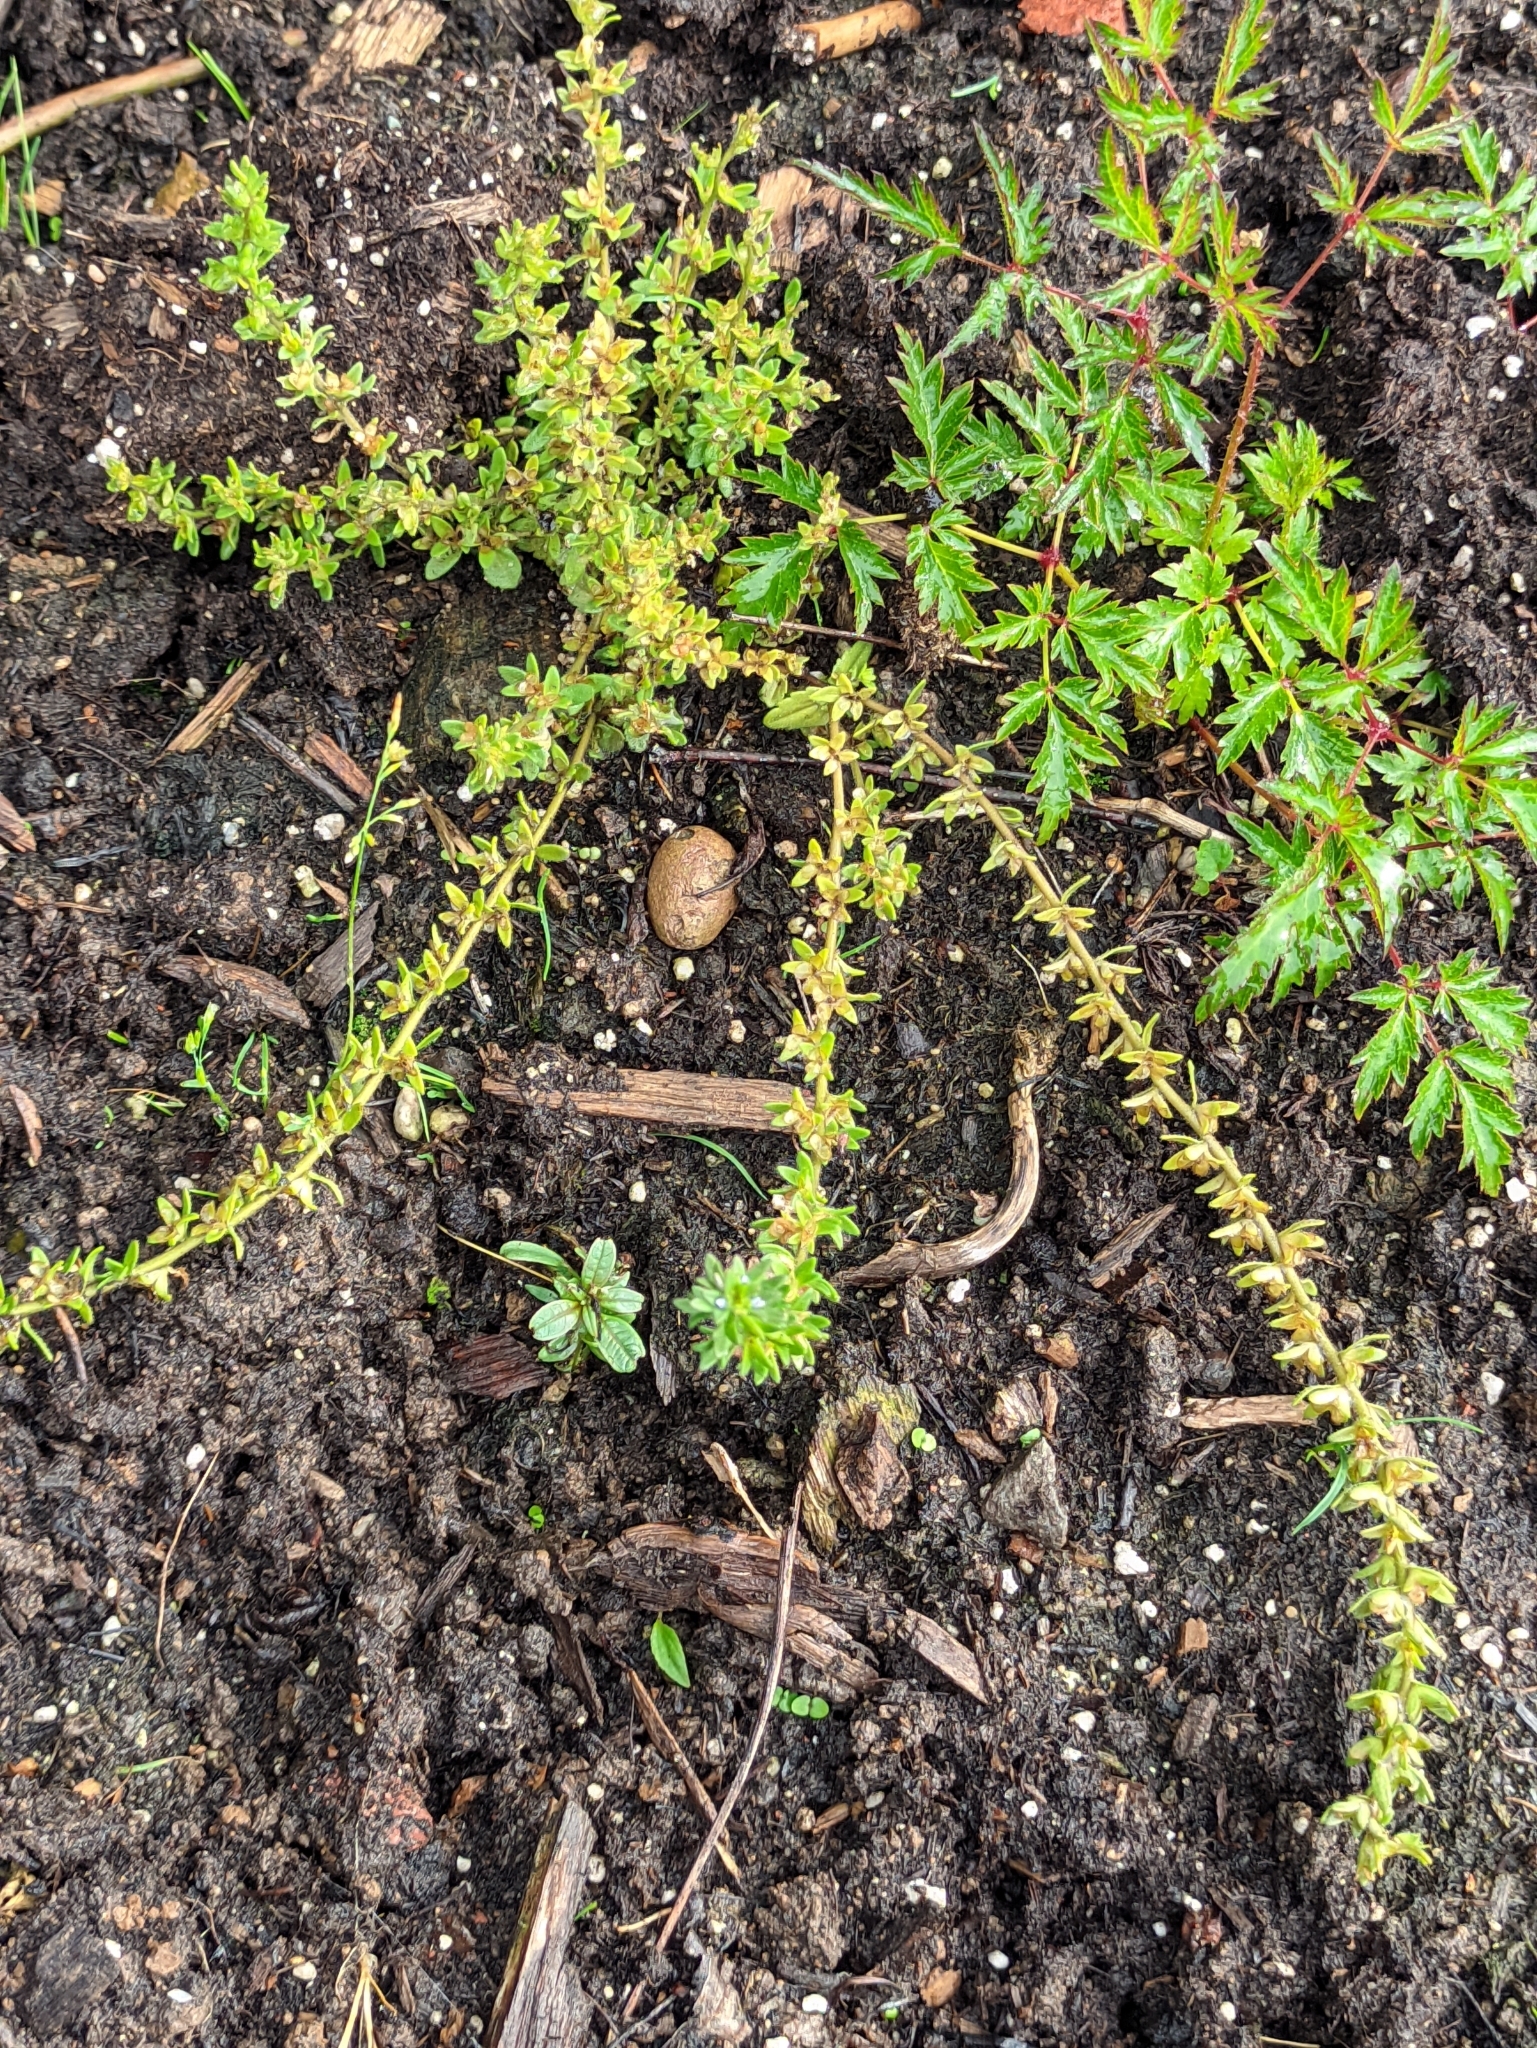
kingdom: Plantae
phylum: Tracheophyta
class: Magnoliopsida
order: Lamiales
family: Plantaginaceae
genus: Veronica
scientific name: Veronica arvensis
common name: Corn speedwell
